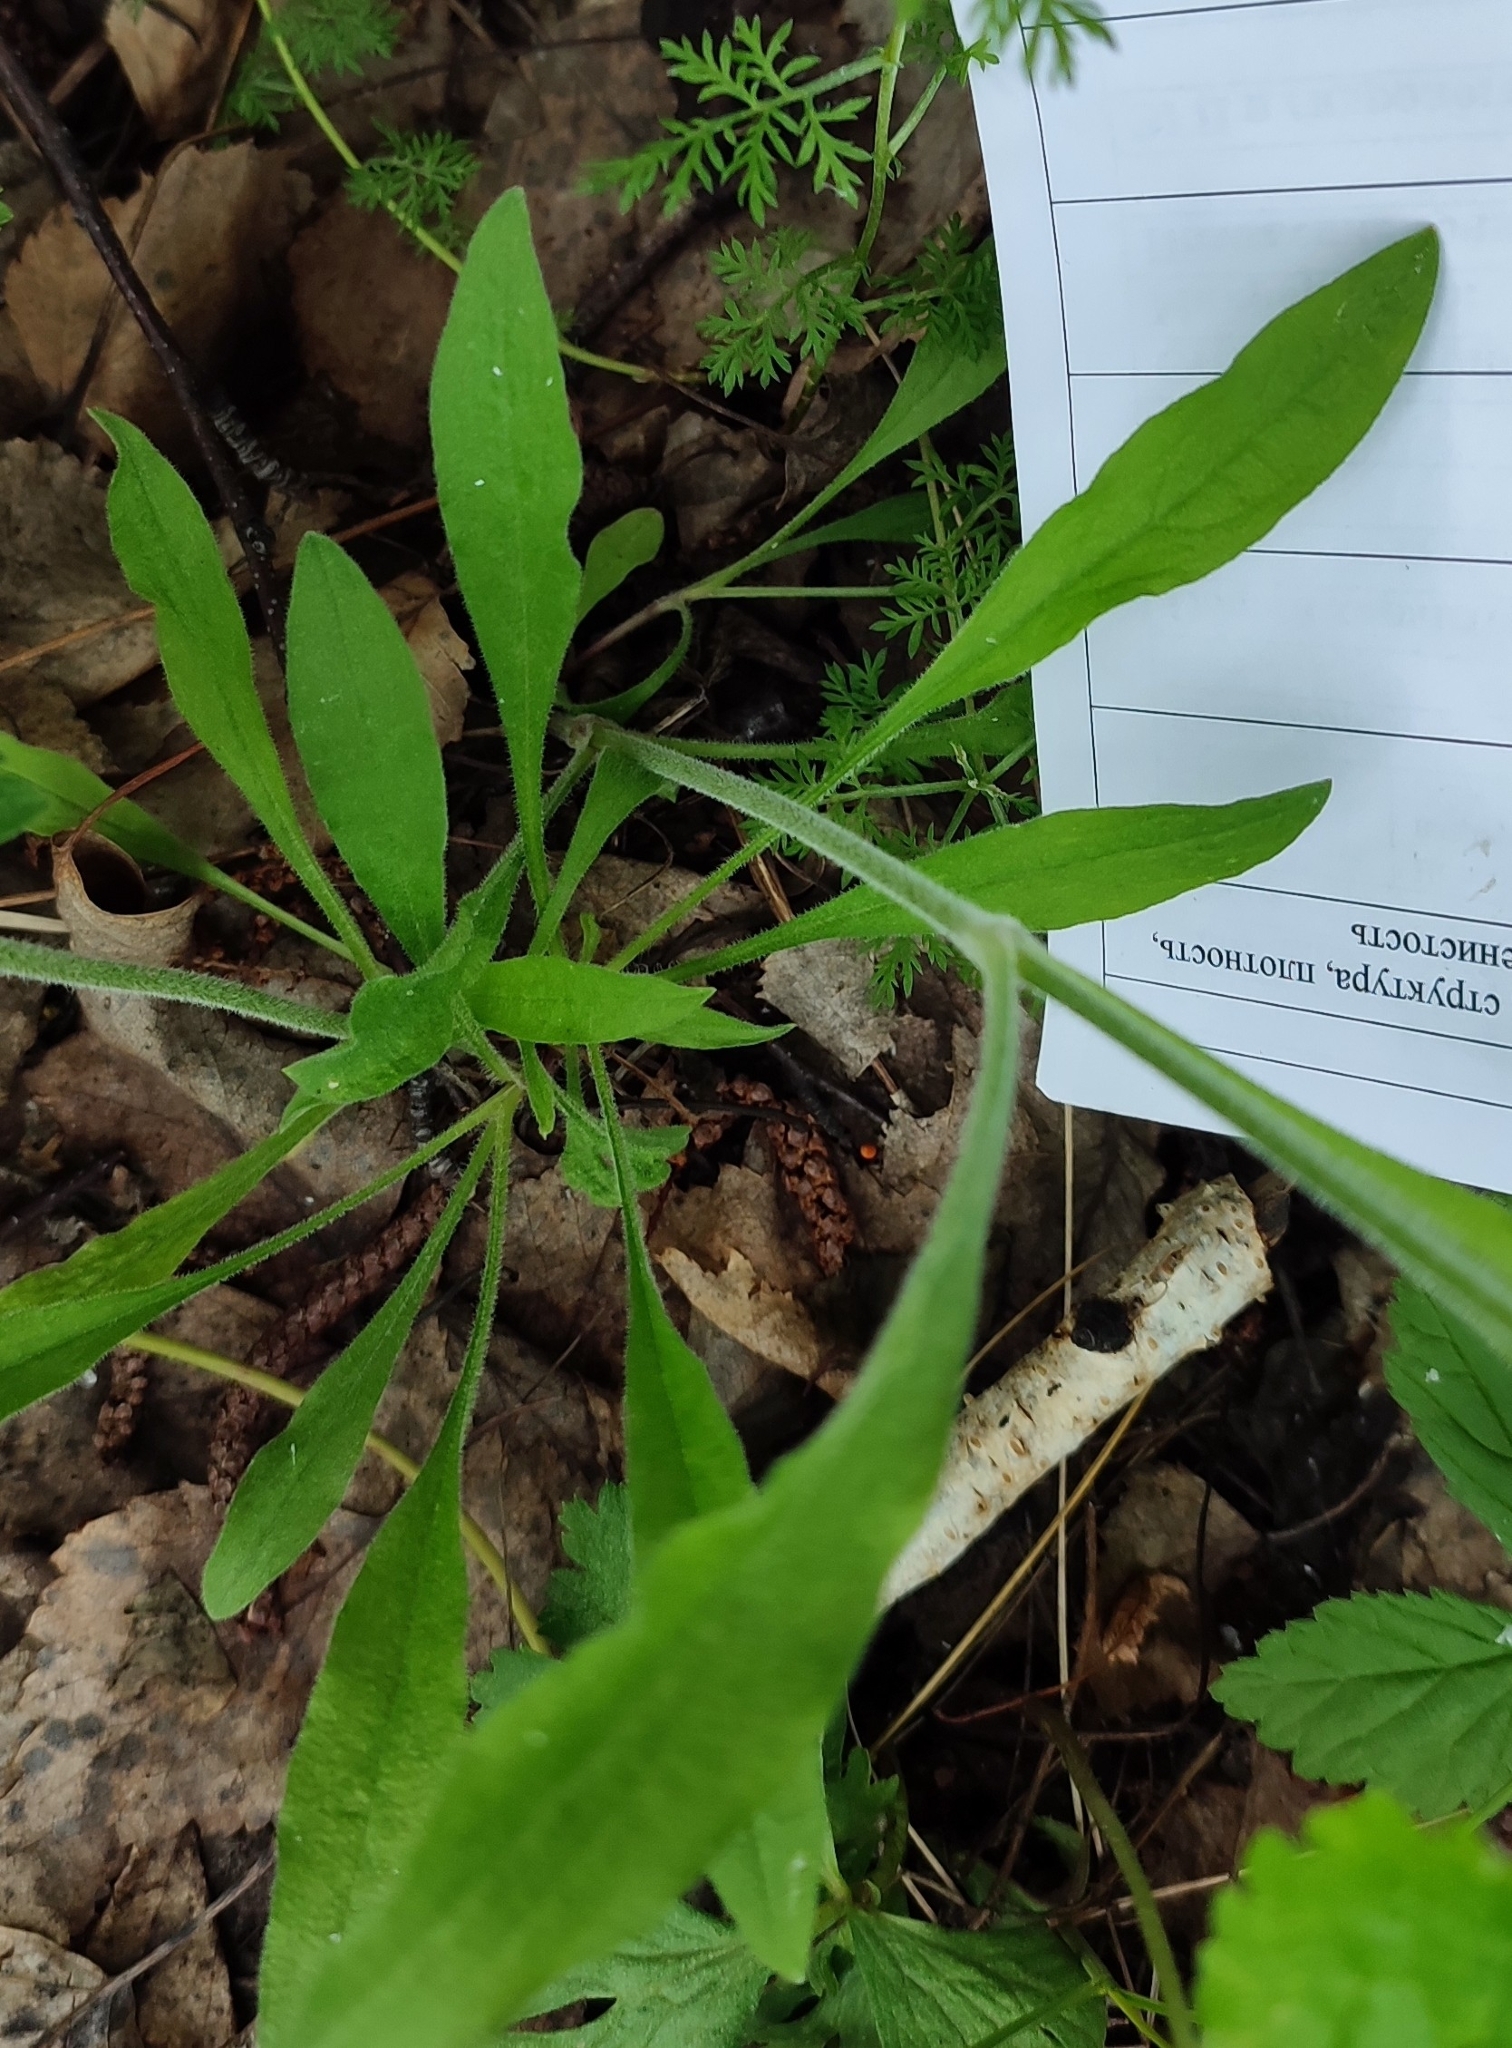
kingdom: Plantae
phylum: Tracheophyta
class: Magnoliopsida
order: Caryophyllales
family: Caryophyllaceae
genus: Silene
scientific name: Silene nutans
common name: Nottingham catchfly
